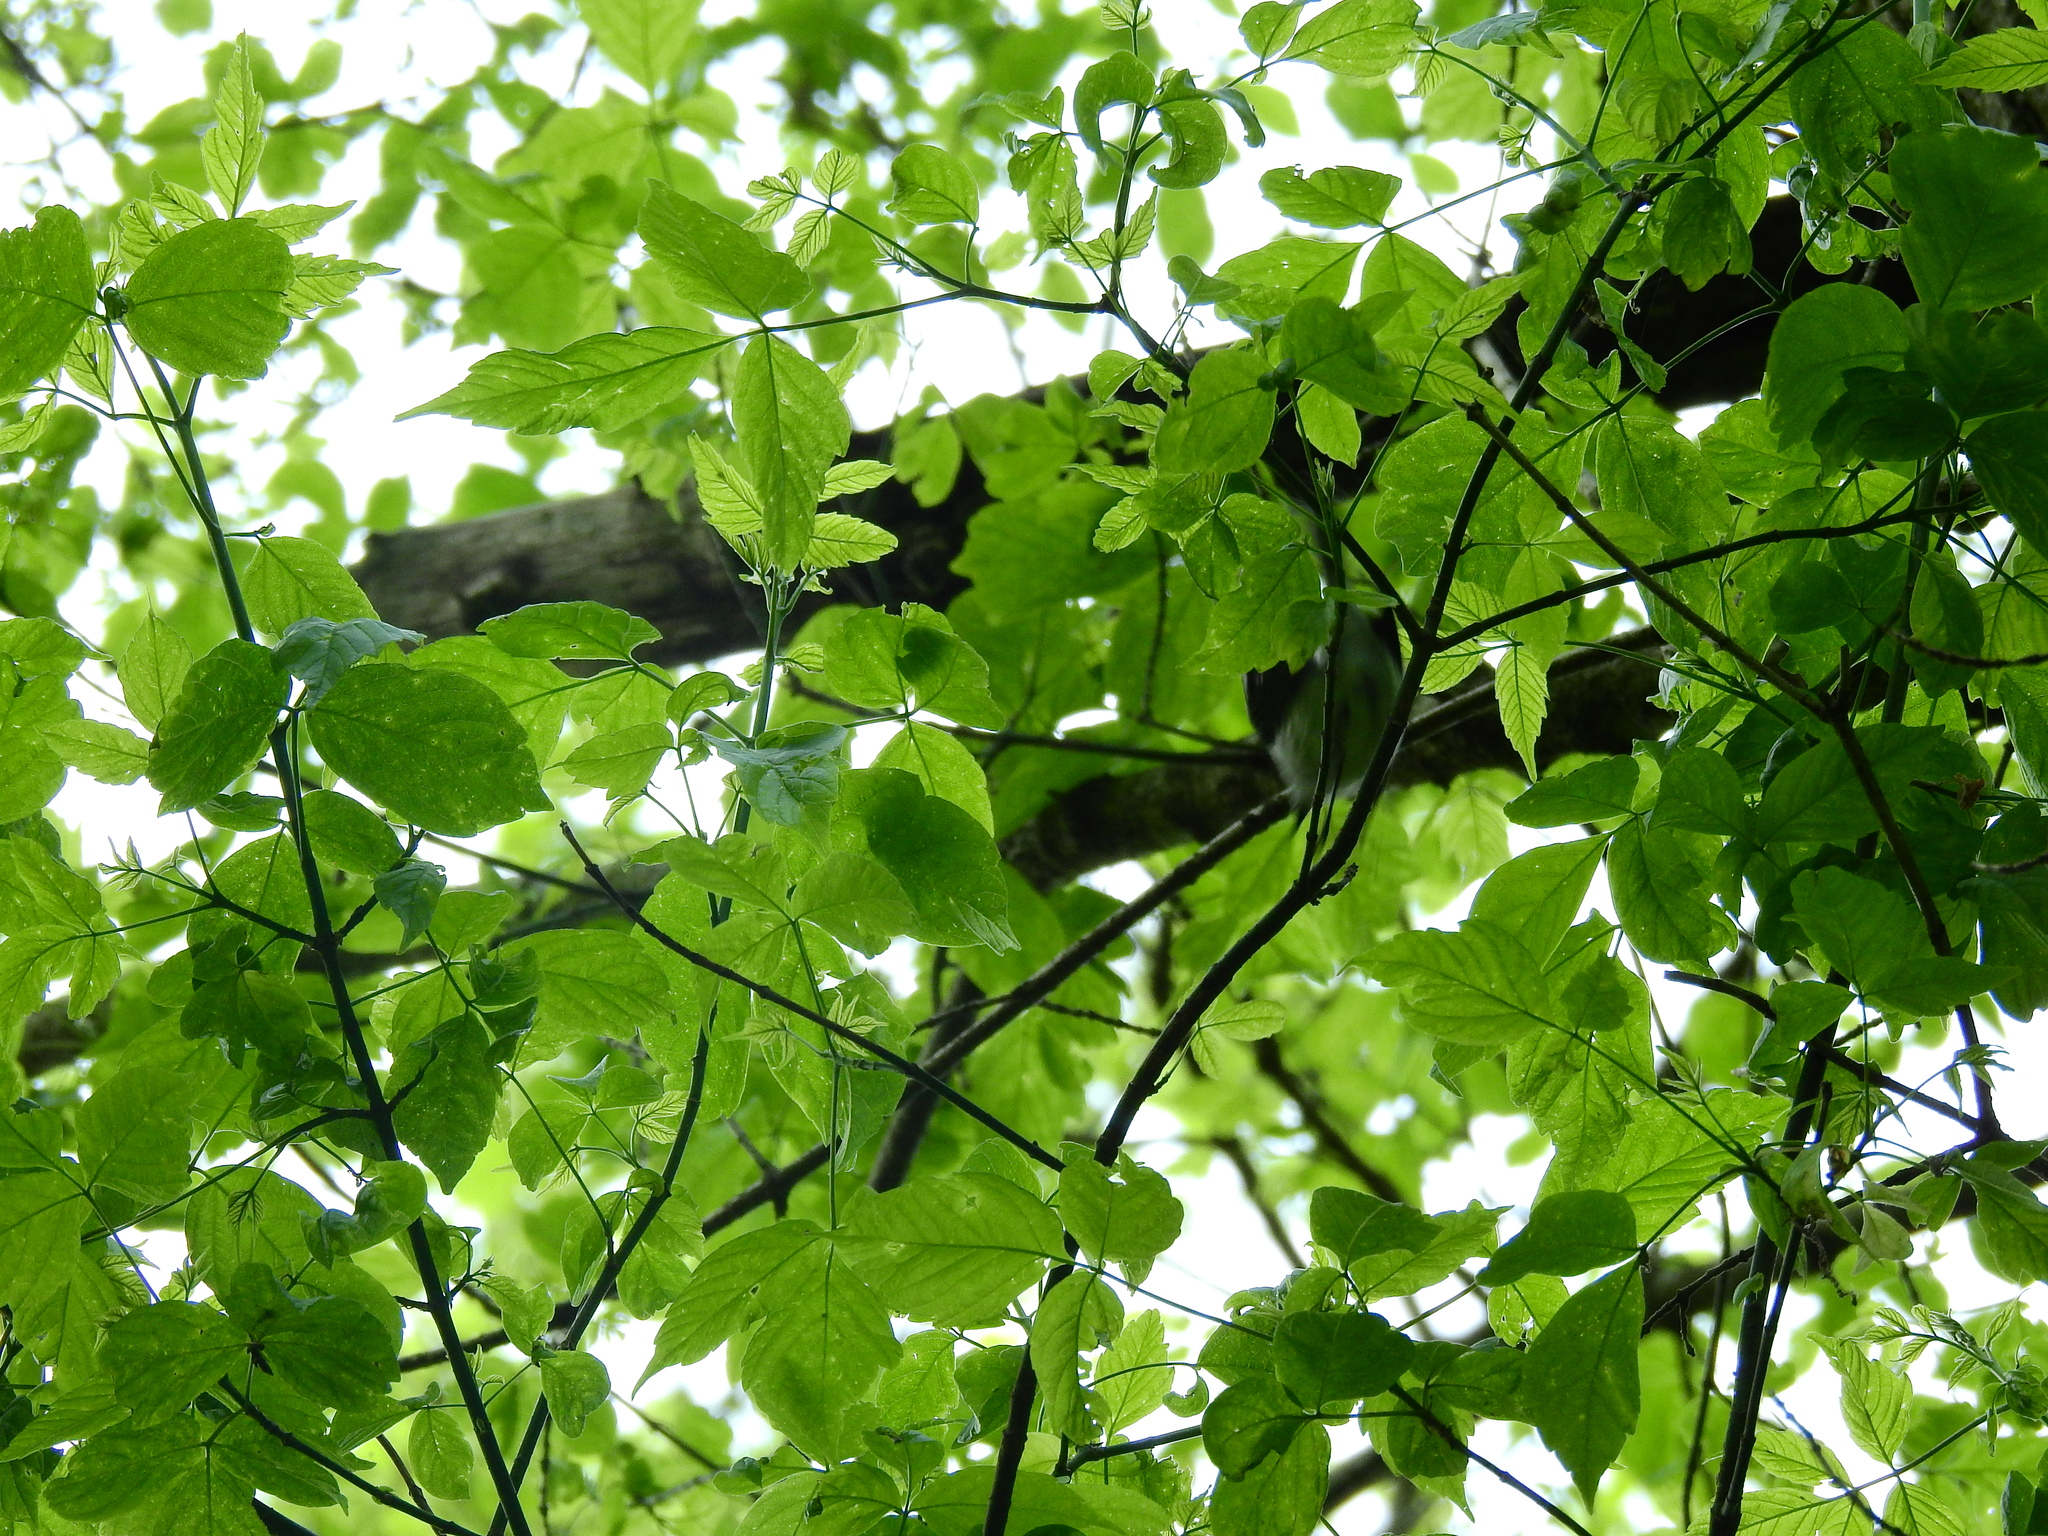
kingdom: Plantae
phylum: Tracheophyta
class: Magnoliopsida
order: Sapindales
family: Sapindaceae
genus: Acer
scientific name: Acer negundo
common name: Ashleaf maple
